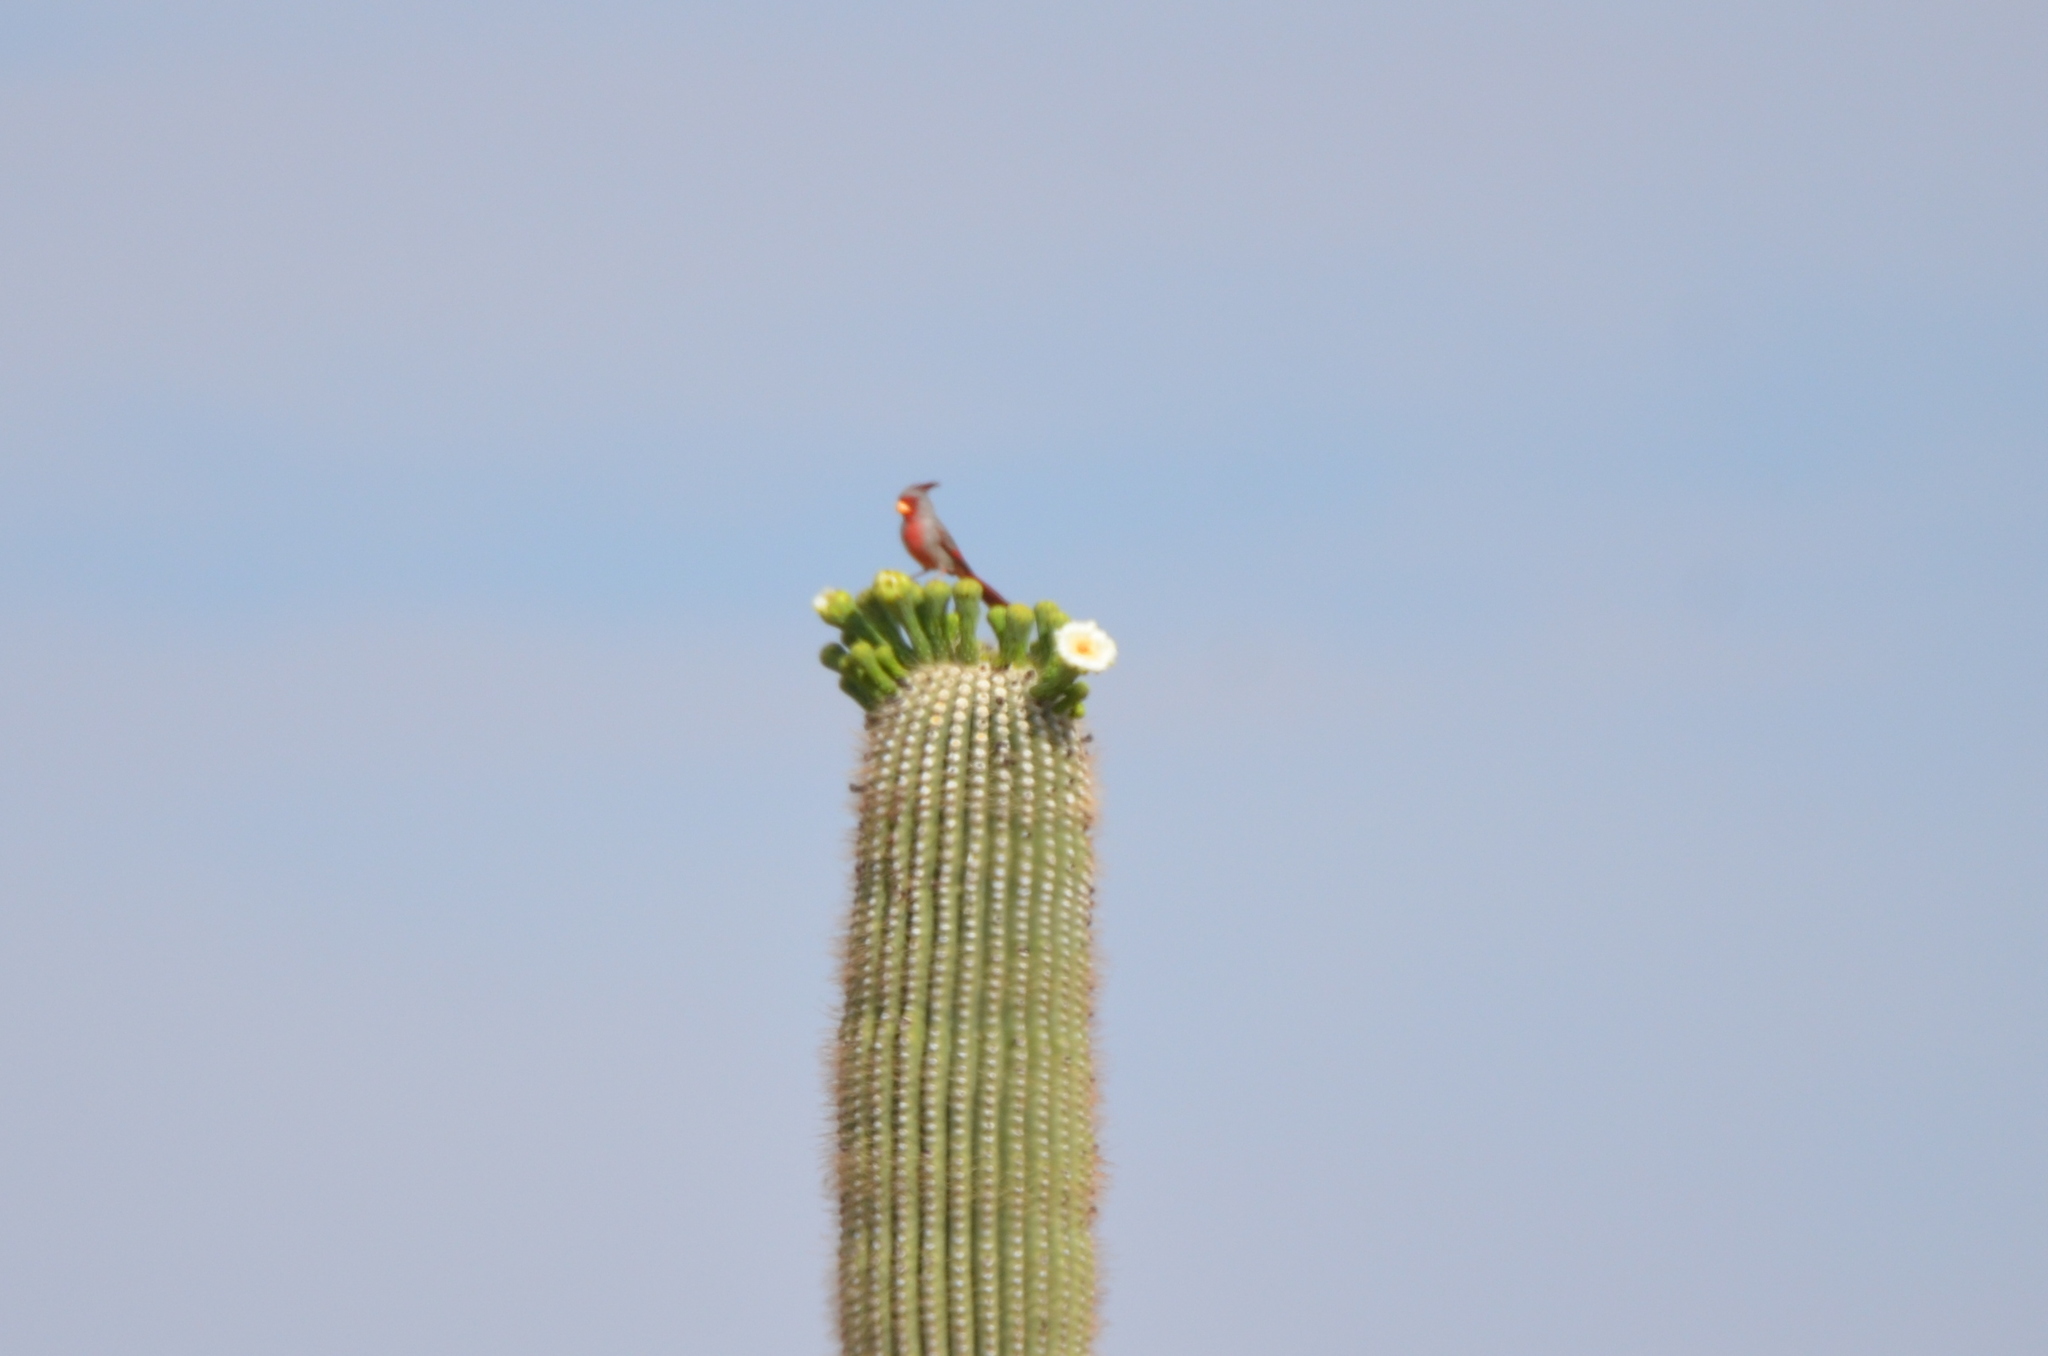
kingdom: Animalia
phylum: Chordata
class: Aves
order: Passeriformes
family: Cardinalidae
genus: Cardinalis
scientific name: Cardinalis sinuatus
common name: Pyrrhuloxia
